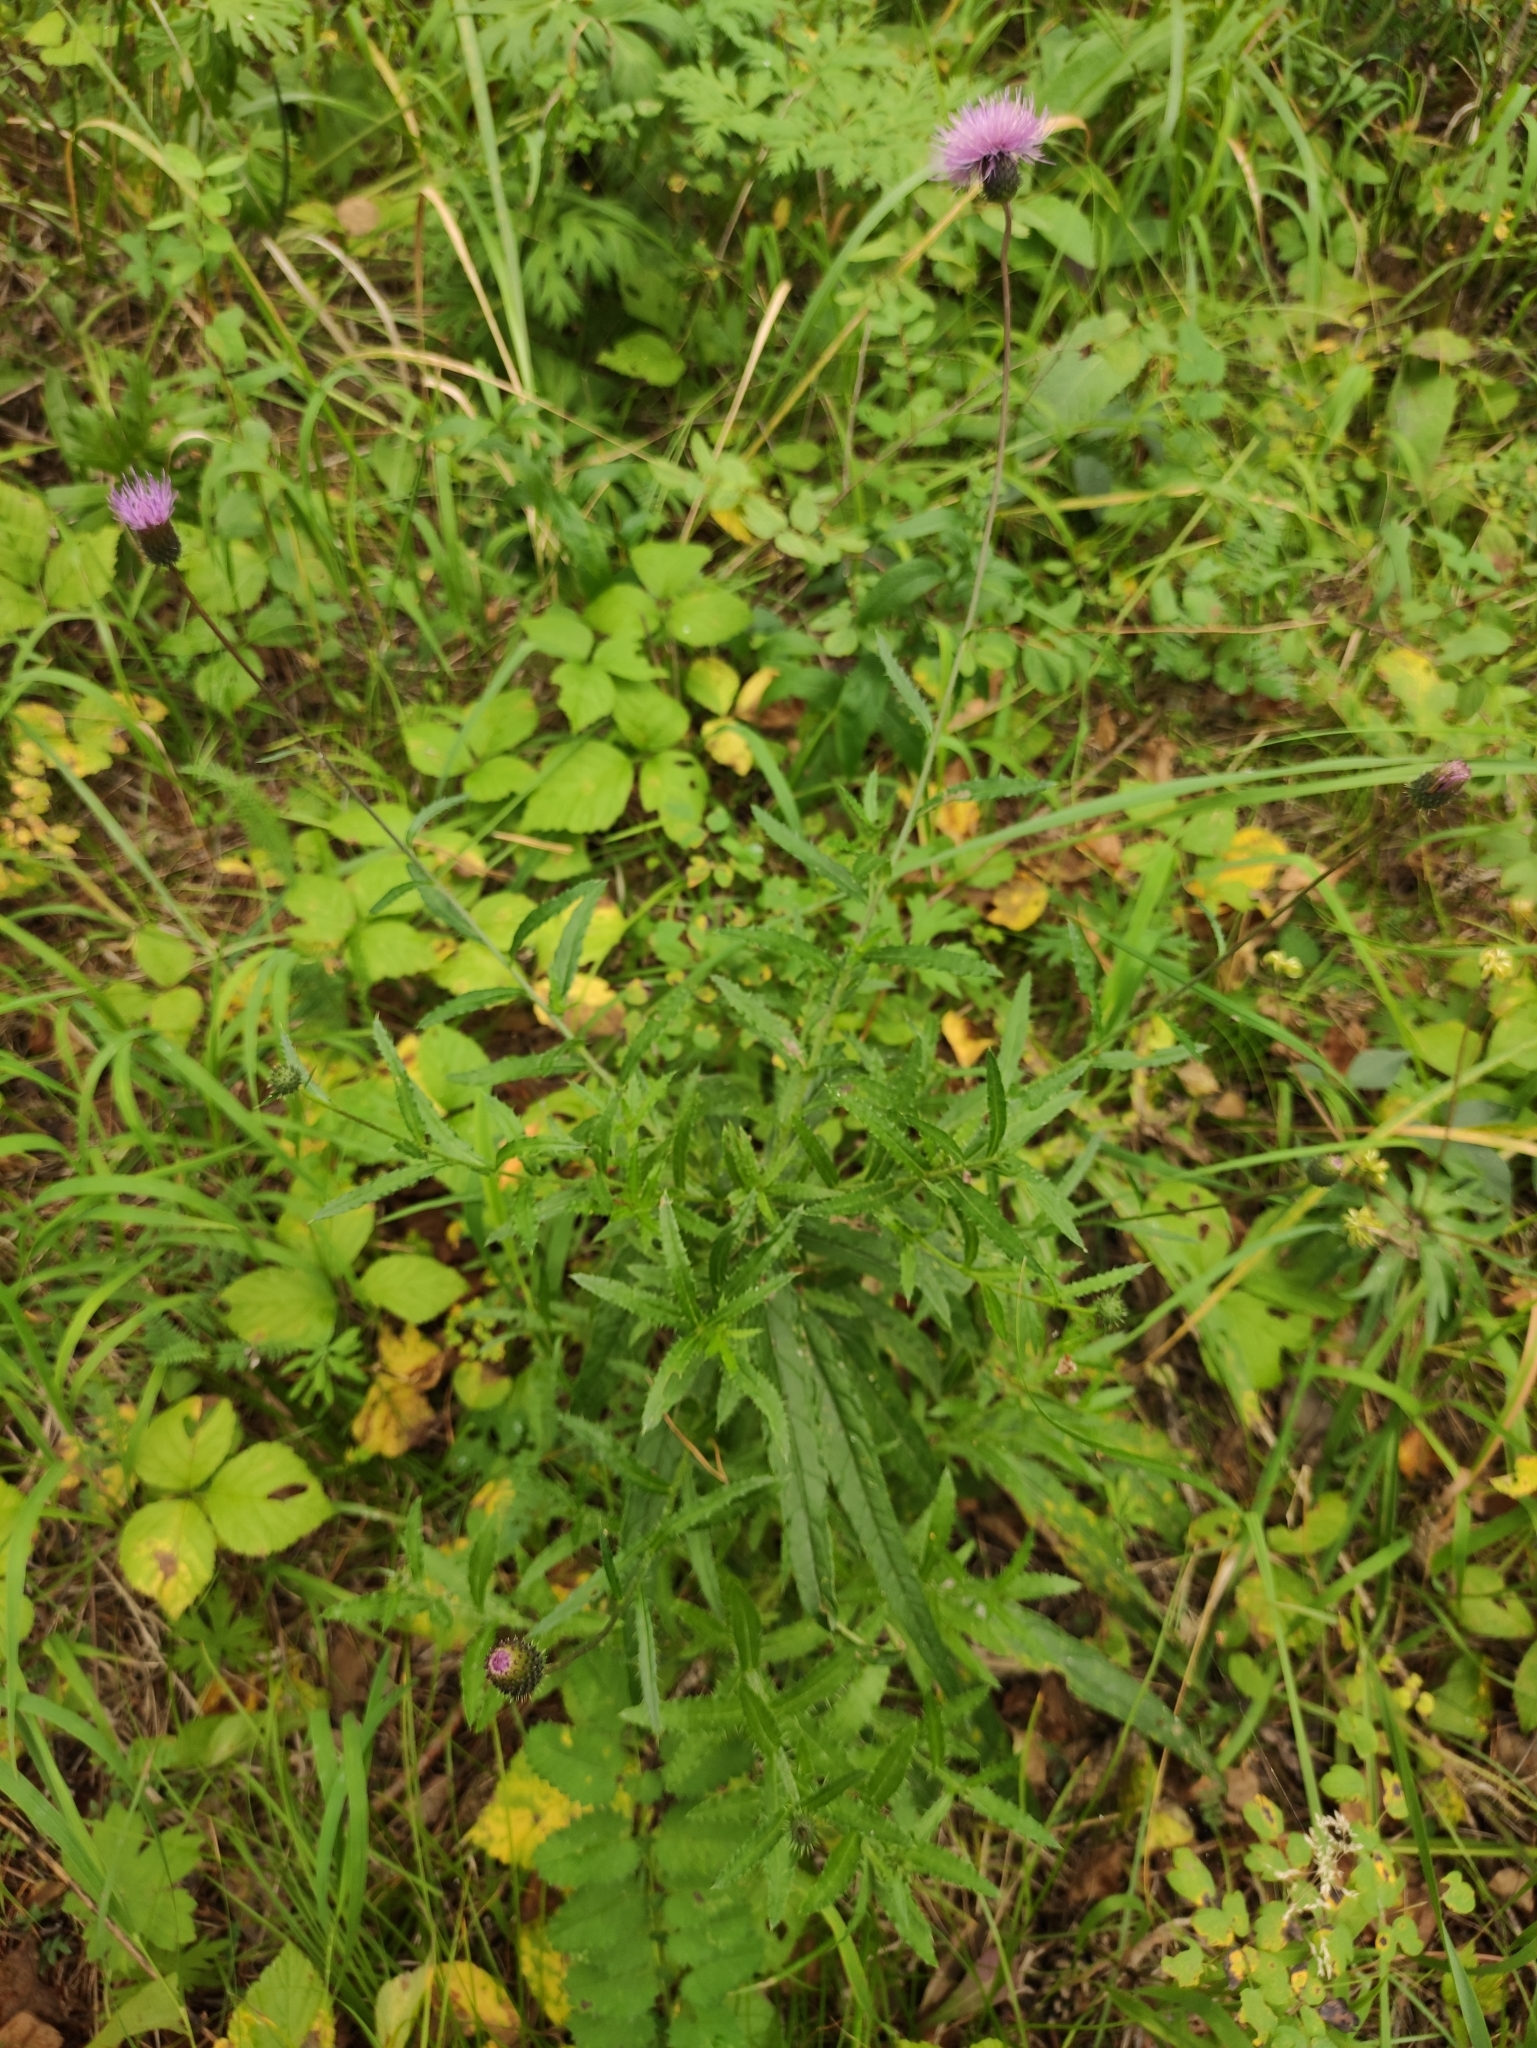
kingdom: Plantae
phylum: Tracheophyta
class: Magnoliopsida
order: Asterales
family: Asteraceae
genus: Cirsium
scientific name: Cirsium serratuloides
